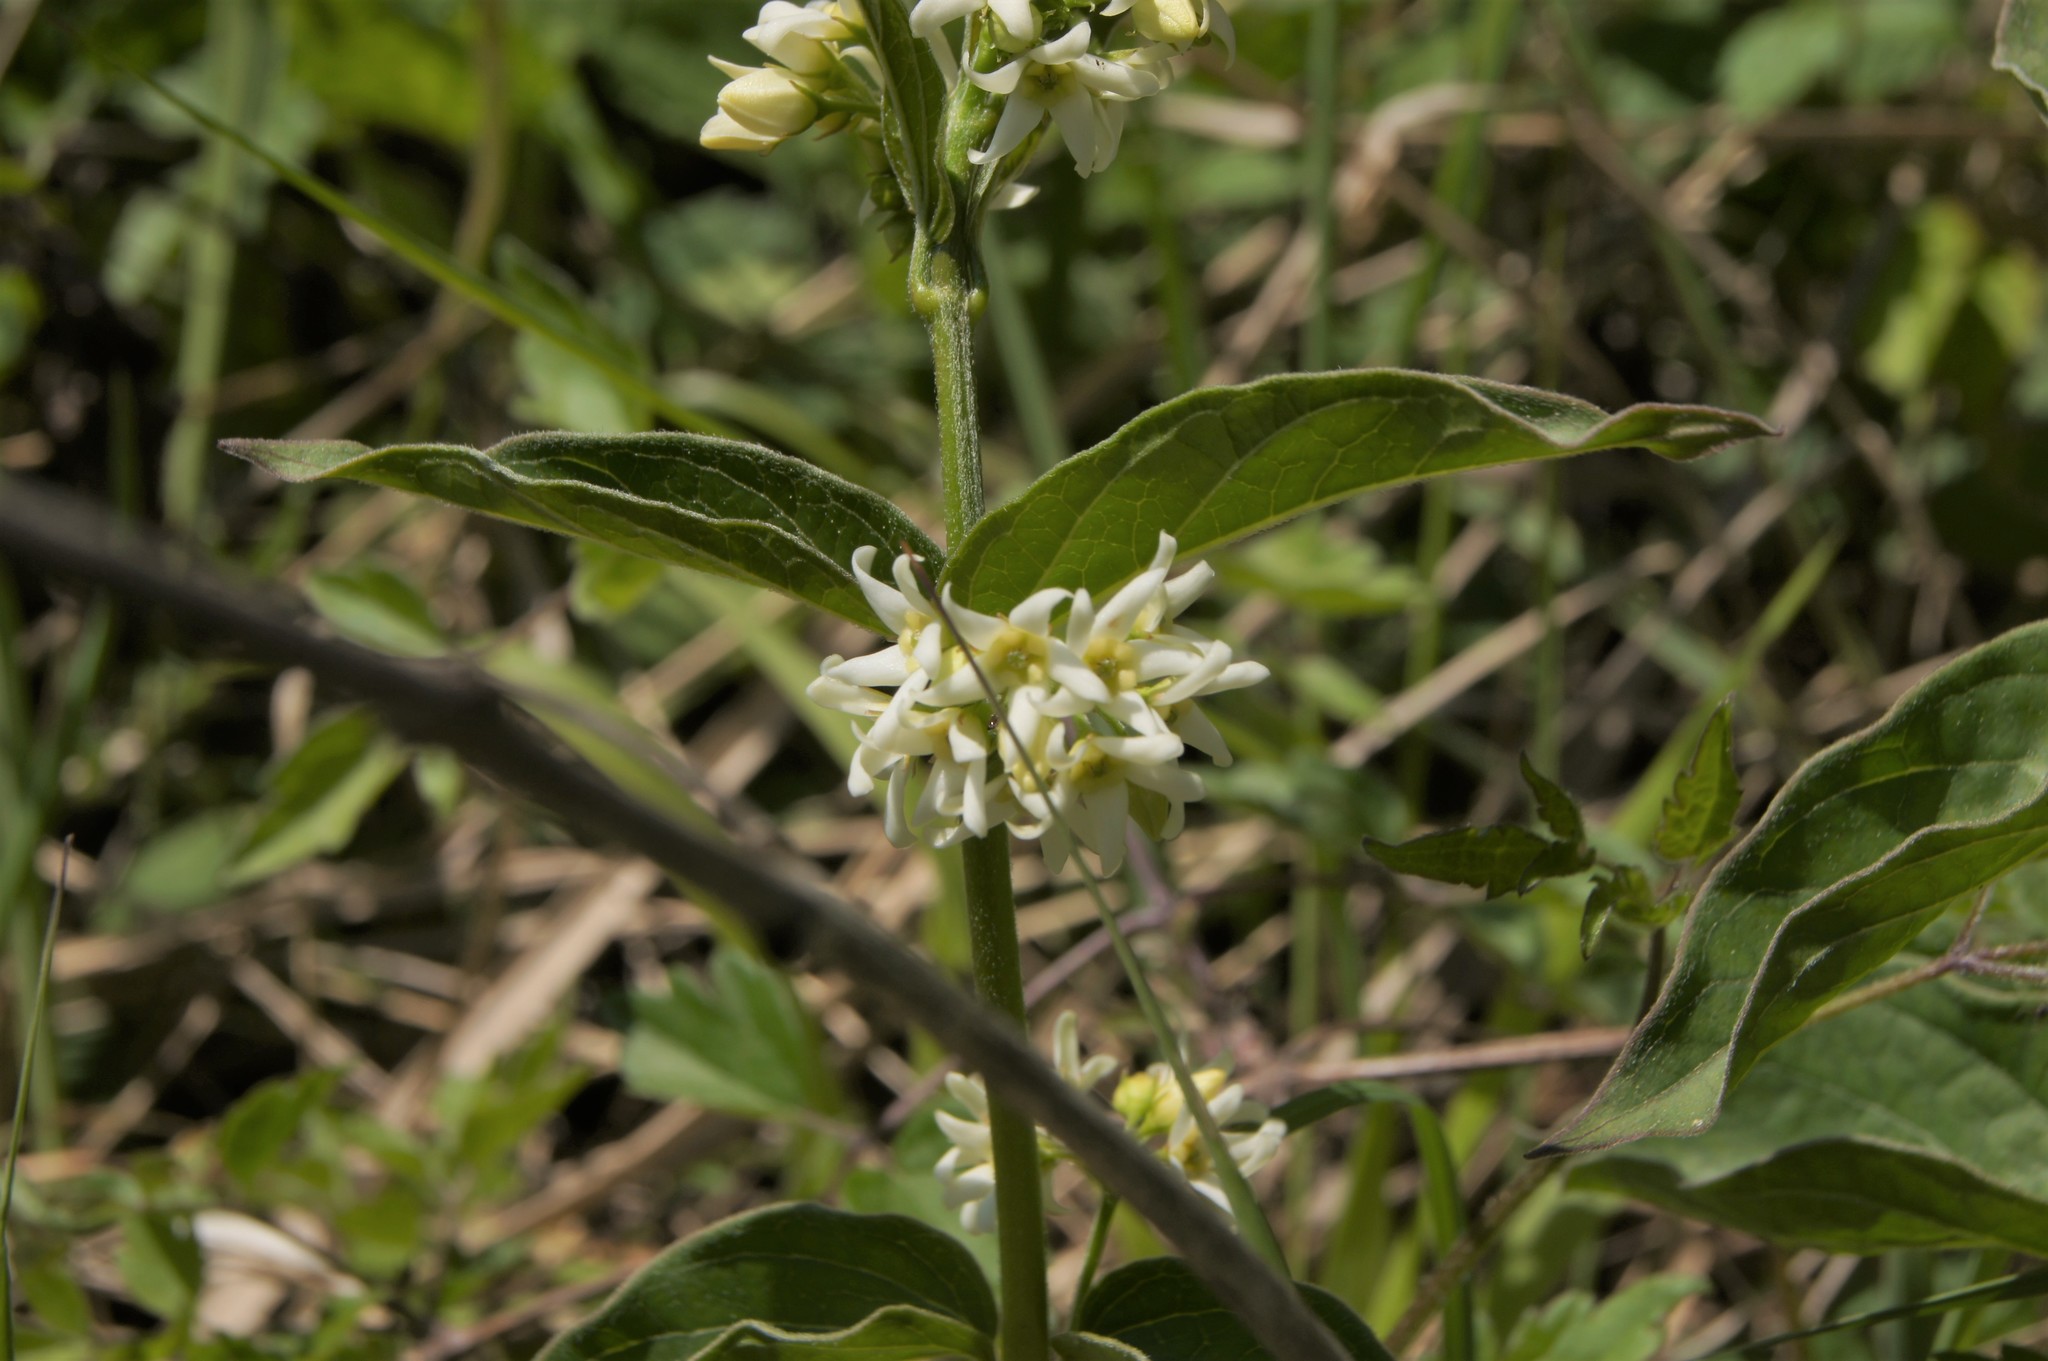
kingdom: Plantae
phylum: Tracheophyta
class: Magnoliopsida
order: Gentianales
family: Apocynaceae
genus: Vincetoxicum
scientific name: Vincetoxicum hirundinaria
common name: White swallowwort
